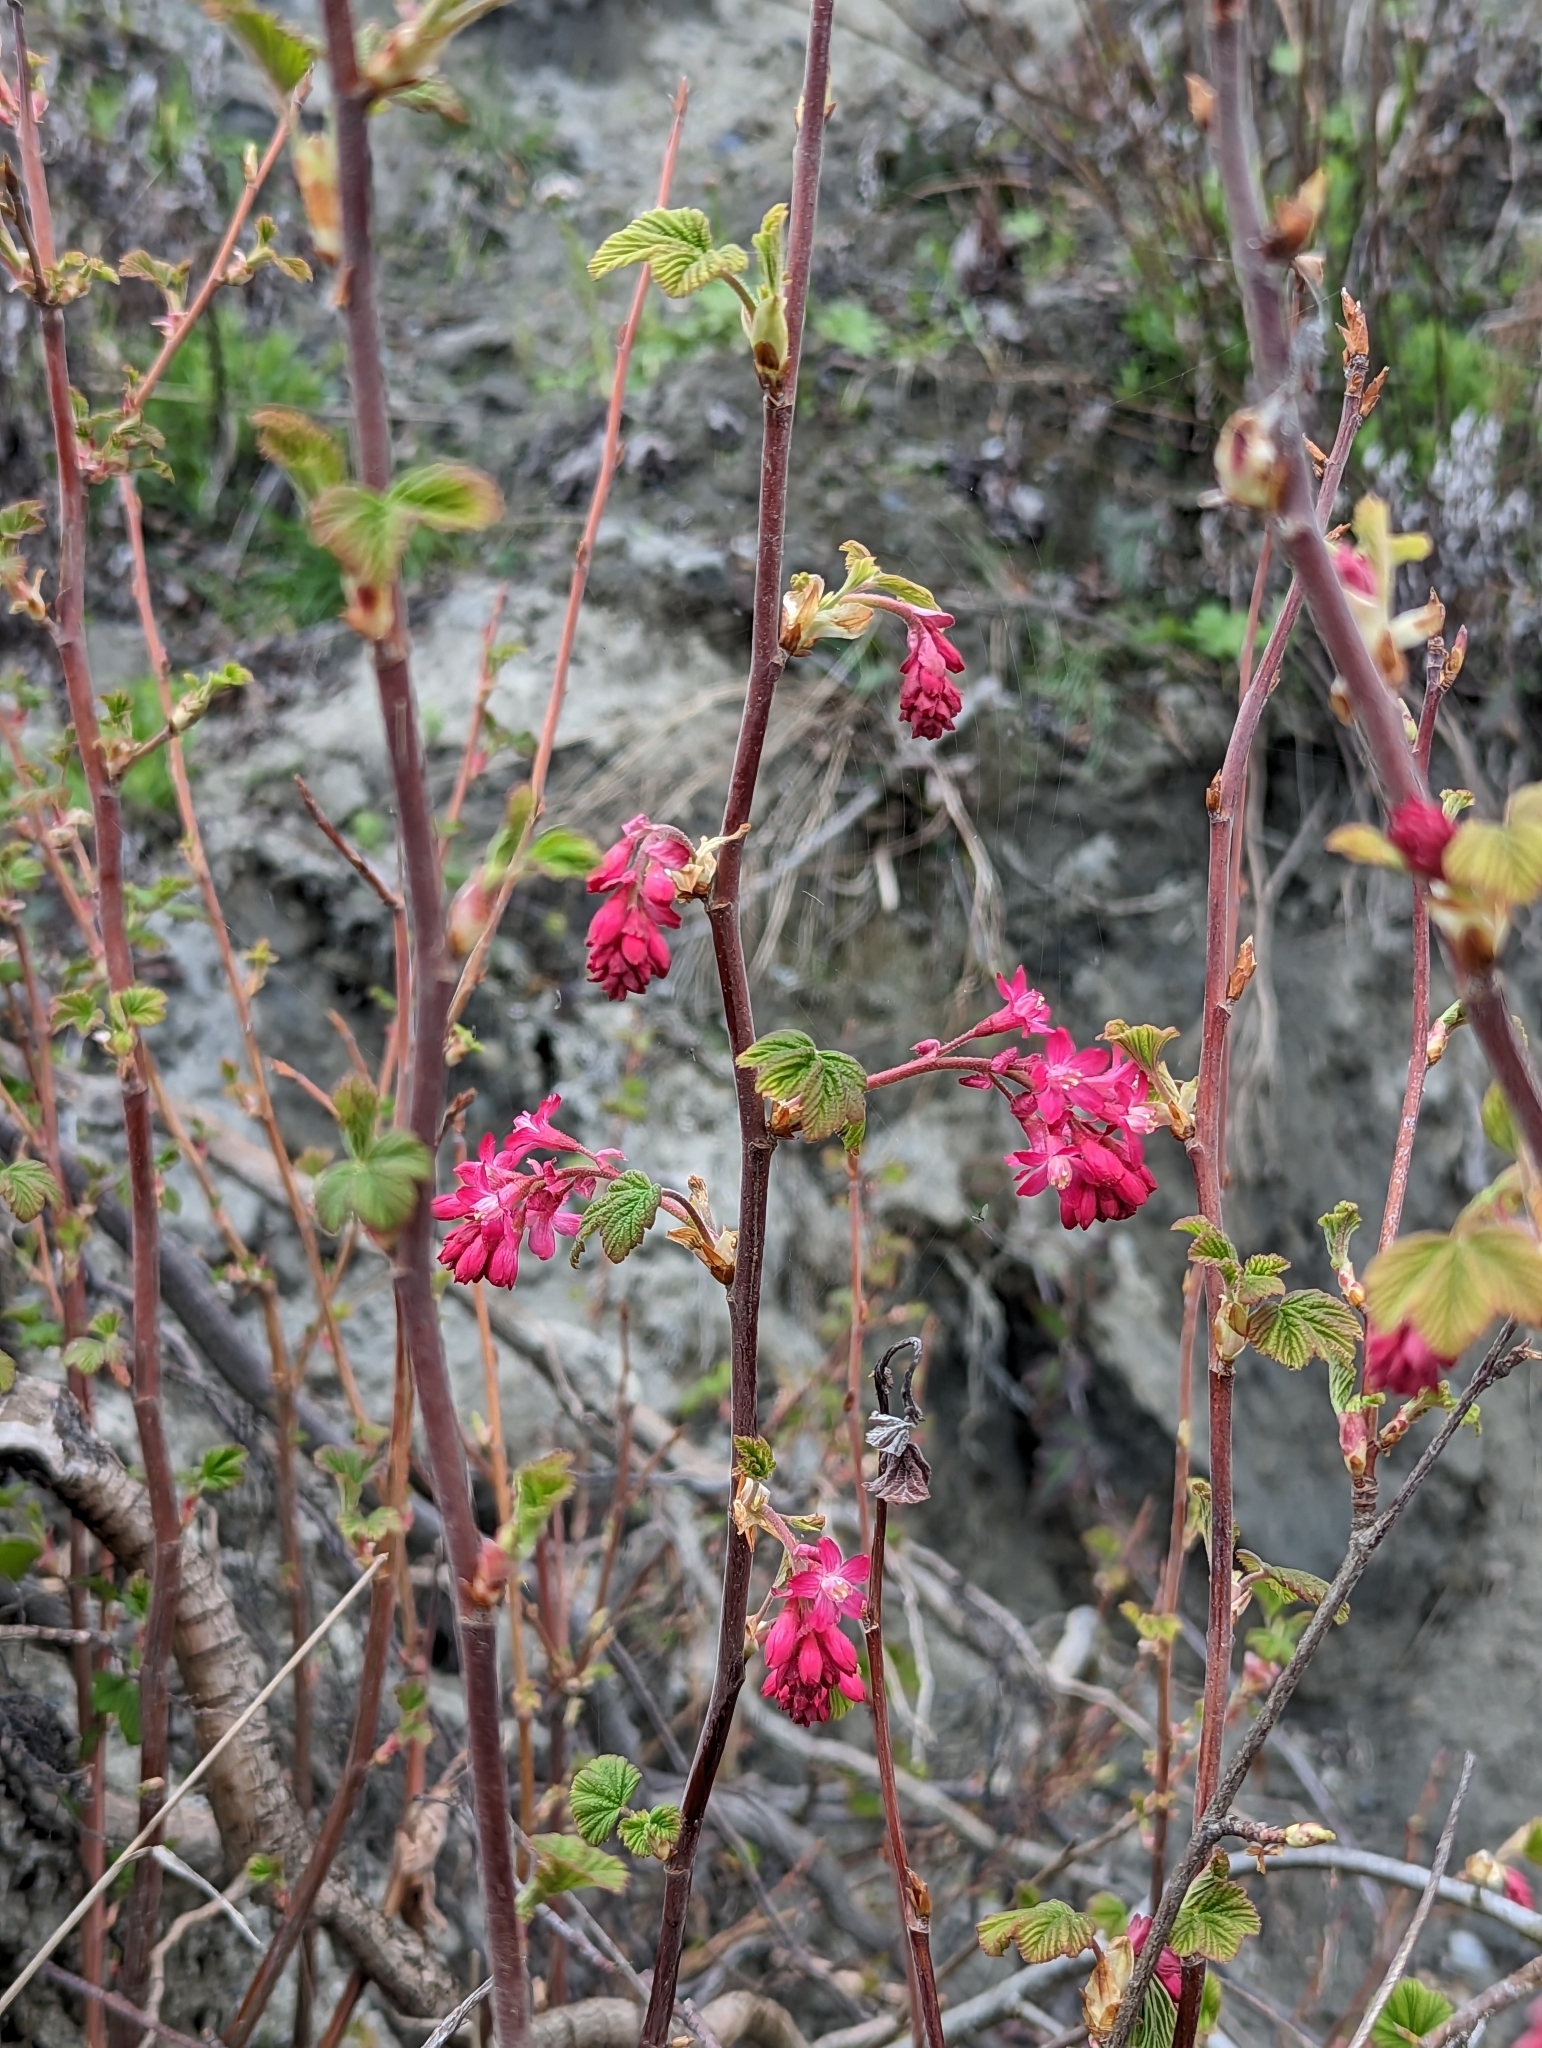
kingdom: Plantae
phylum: Tracheophyta
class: Magnoliopsida
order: Saxifragales
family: Grossulariaceae
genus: Ribes
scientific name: Ribes sanguineum
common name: Flowering currant
